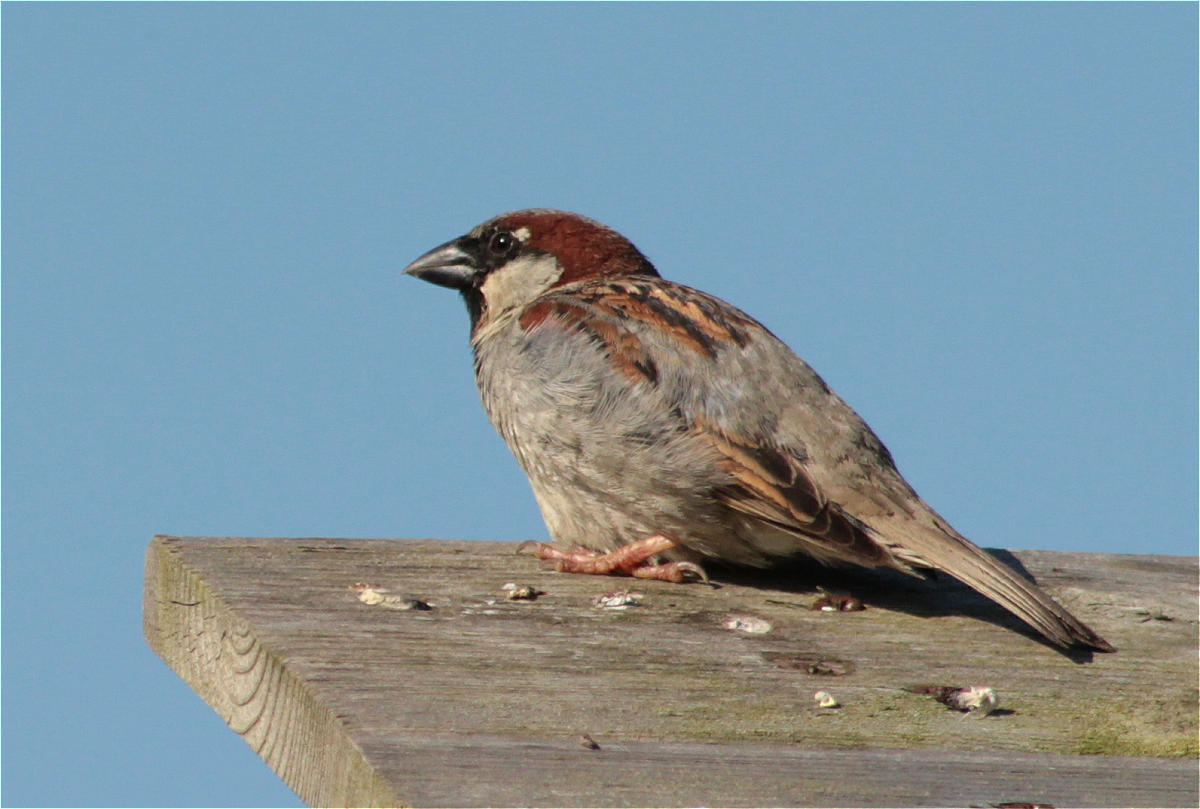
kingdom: Animalia
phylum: Chordata
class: Aves
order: Passeriformes
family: Passeridae
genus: Passer
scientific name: Passer domesticus
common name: House sparrow
